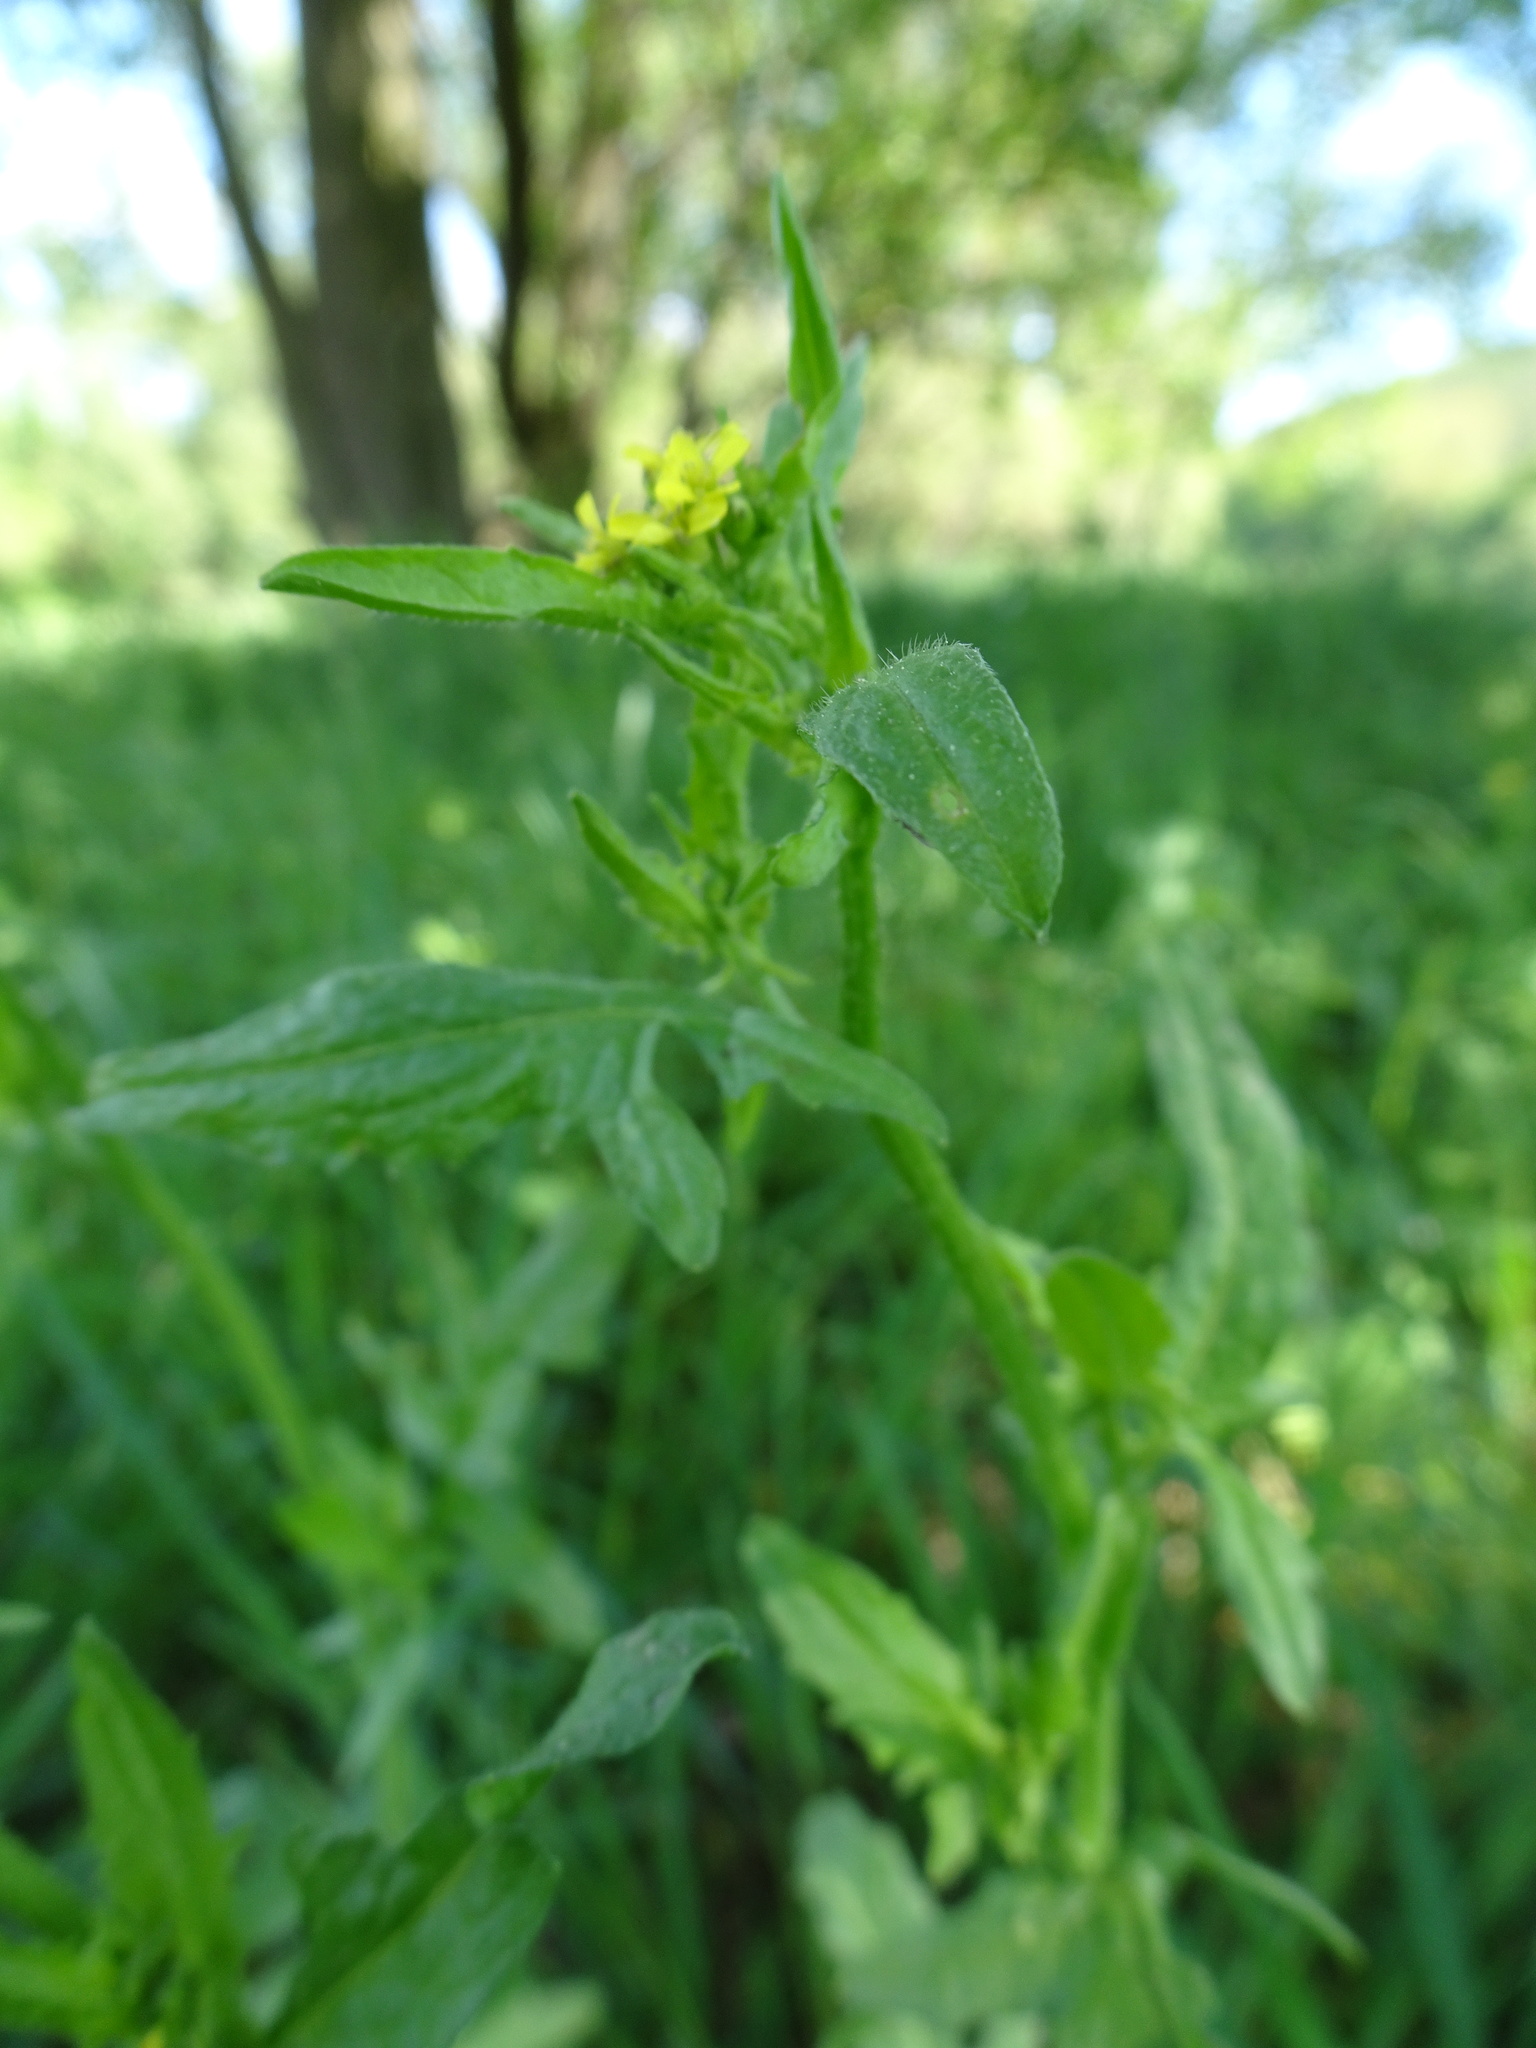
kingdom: Plantae
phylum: Tracheophyta
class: Magnoliopsida
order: Brassicales
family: Brassicaceae
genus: Sisymbrium
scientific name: Sisymbrium officinale
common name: Hedge mustard
